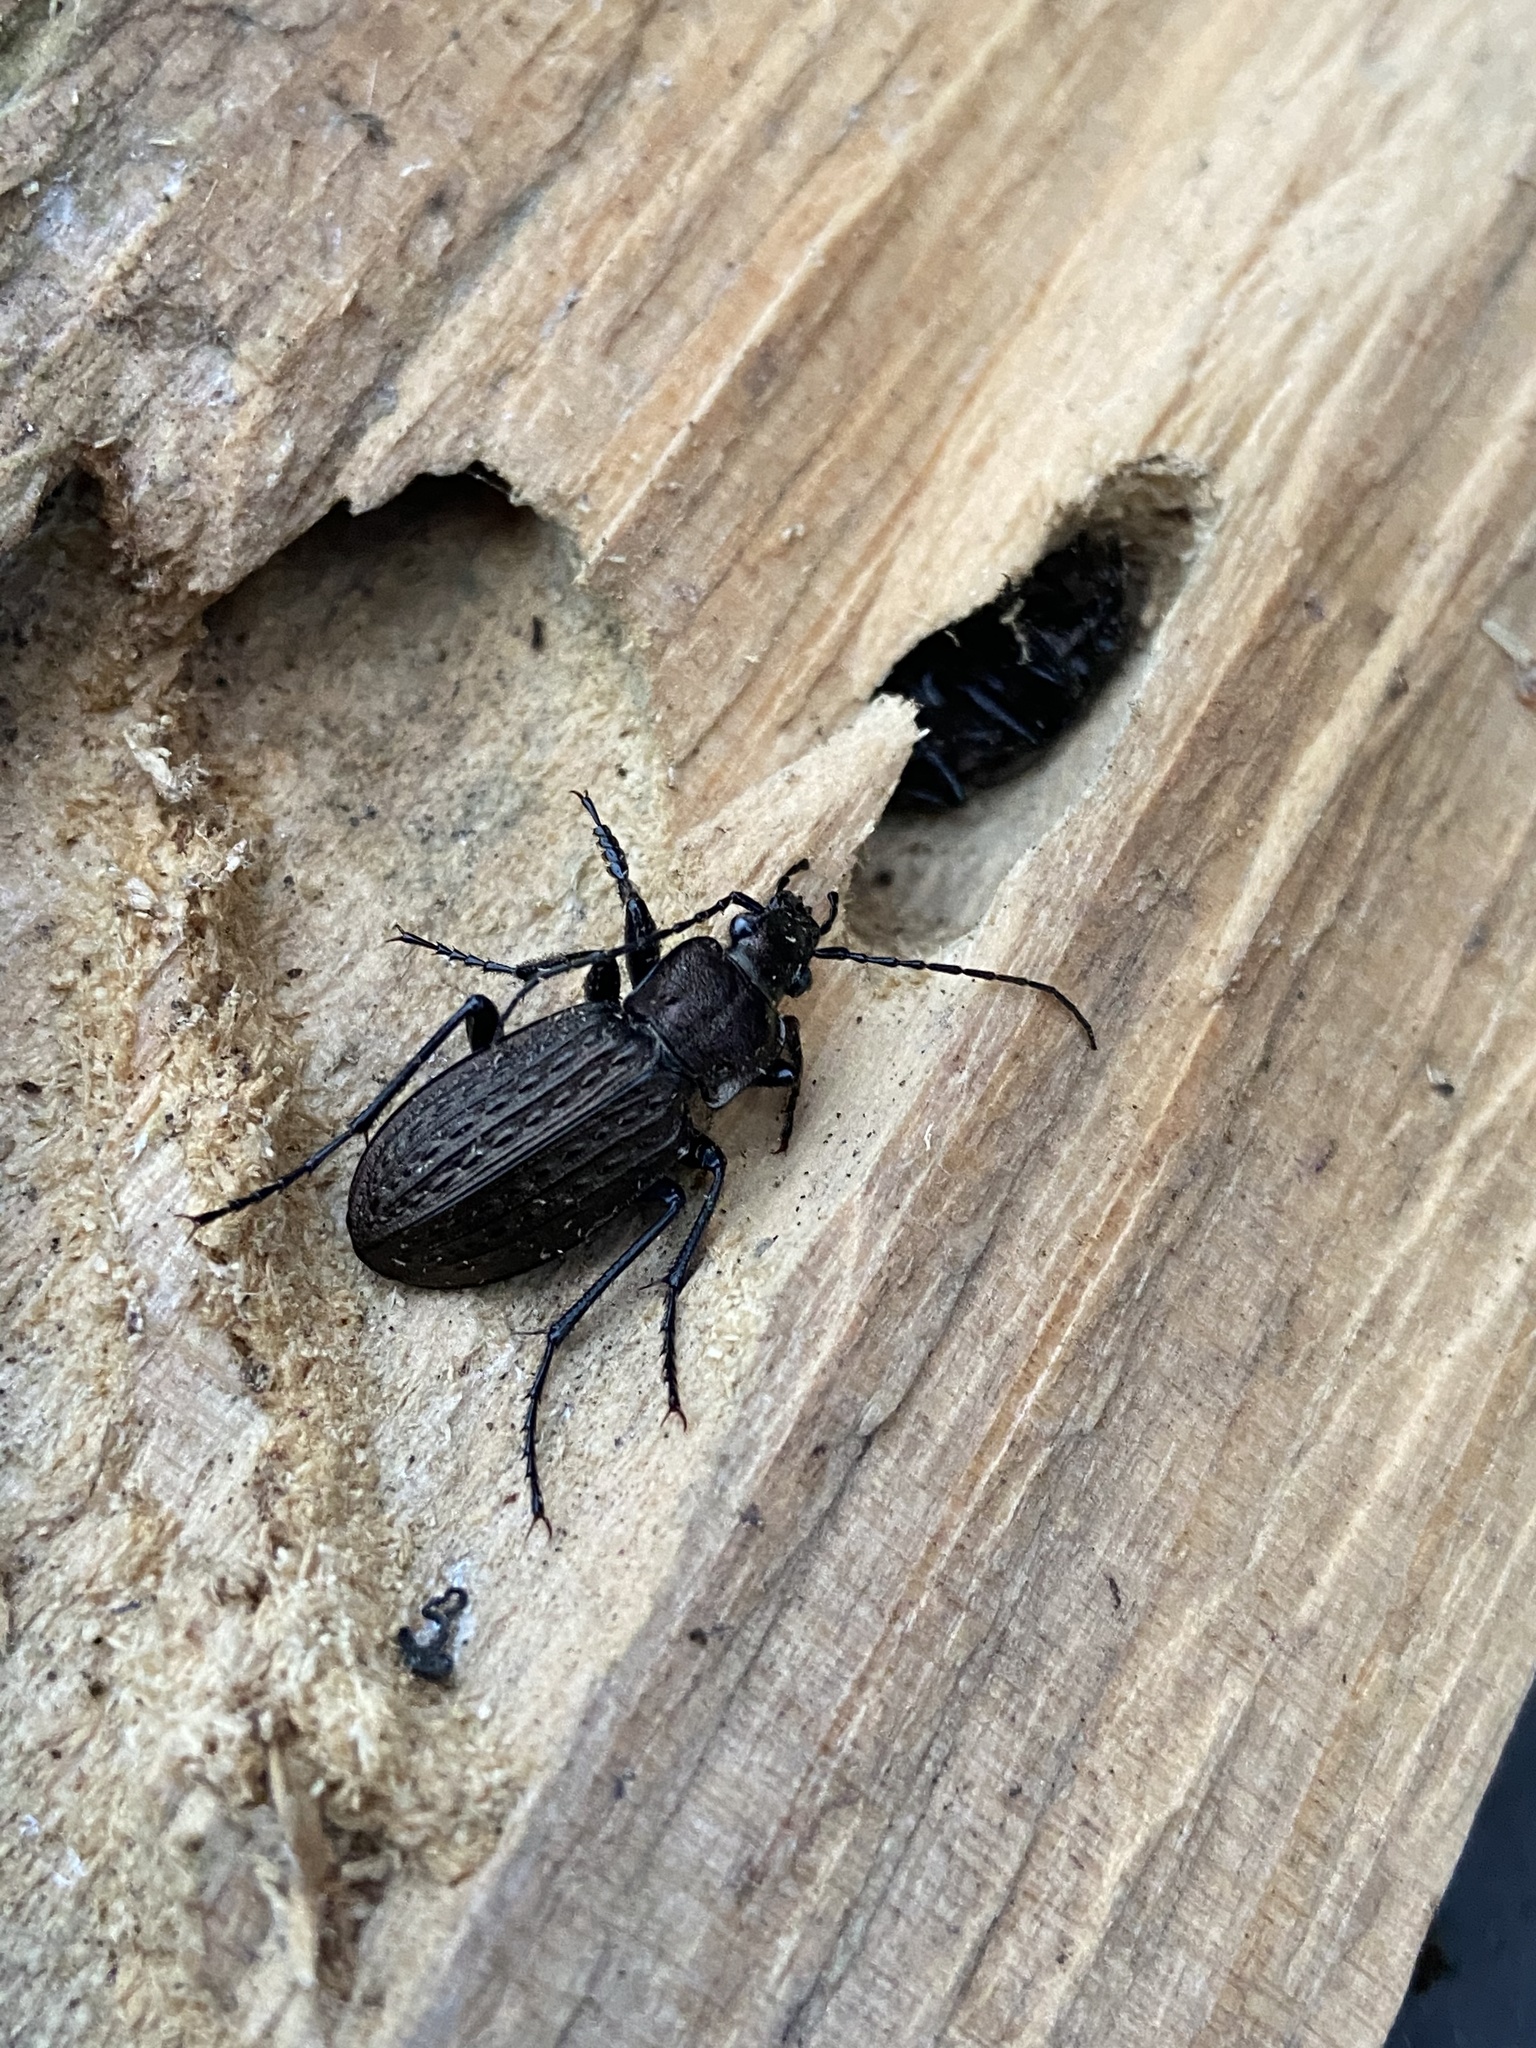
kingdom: Animalia
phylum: Arthropoda
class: Insecta
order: Coleoptera
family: Carabidae
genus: Carabus
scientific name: Carabus granulatus
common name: Granulate ground beetle
